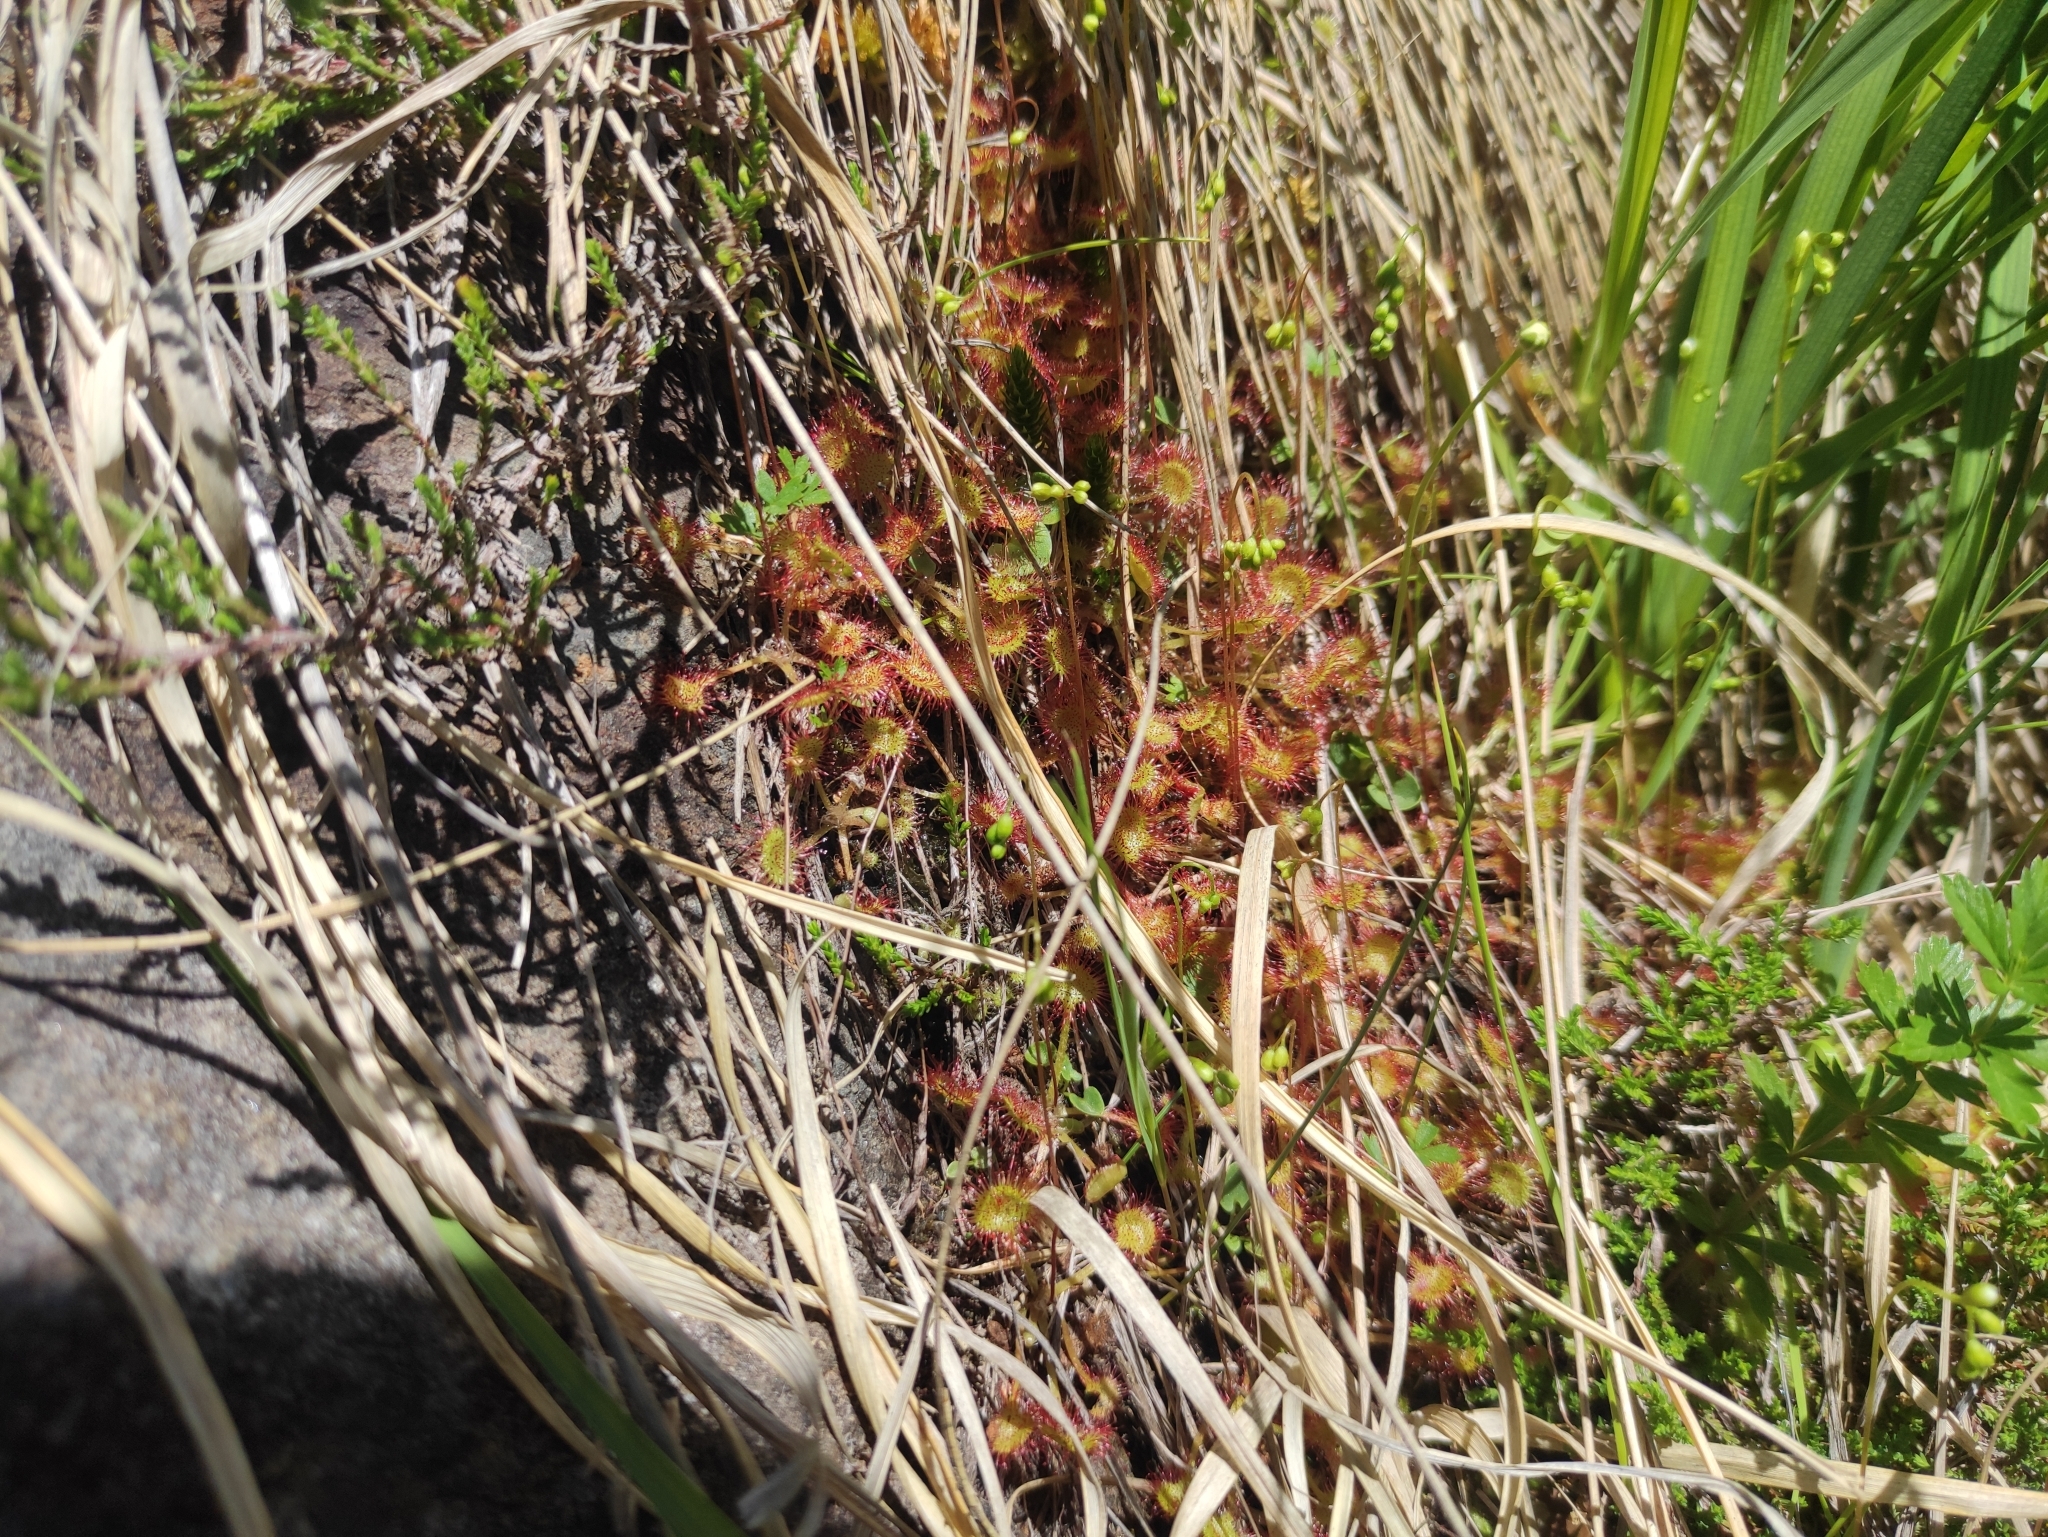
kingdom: Plantae
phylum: Tracheophyta
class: Magnoliopsida
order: Caryophyllales
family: Droseraceae
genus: Drosera
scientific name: Drosera rotundifolia
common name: Round-leaved sundew
